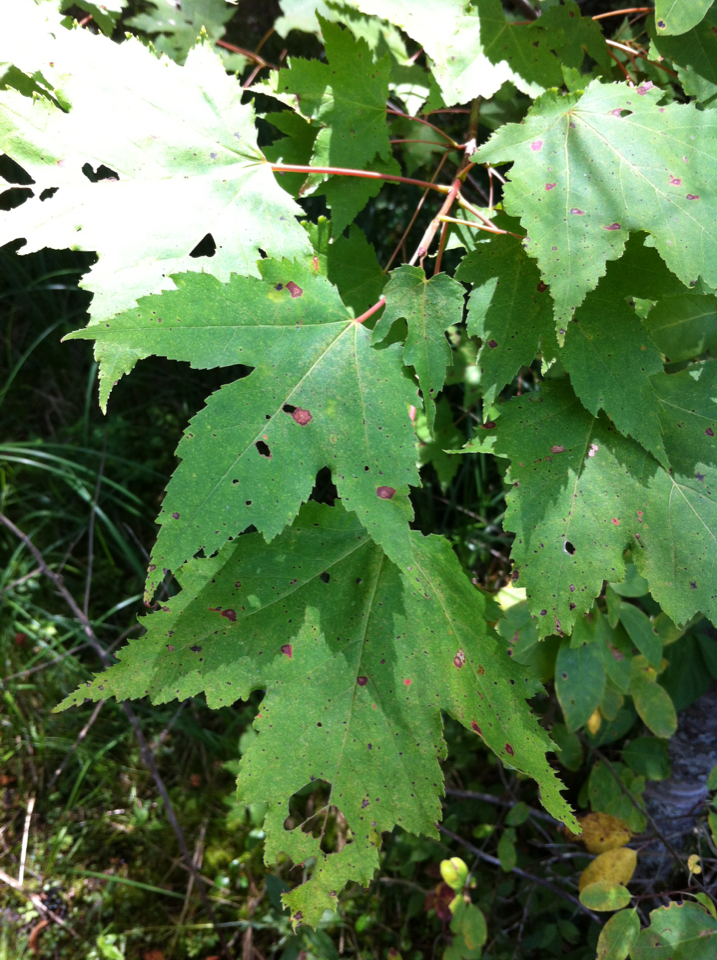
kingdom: Plantae
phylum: Tracheophyta
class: Magnoliopsida
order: Sapindales
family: Sapindaceae
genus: Acer
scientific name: Acer rubrum
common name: Red maple
